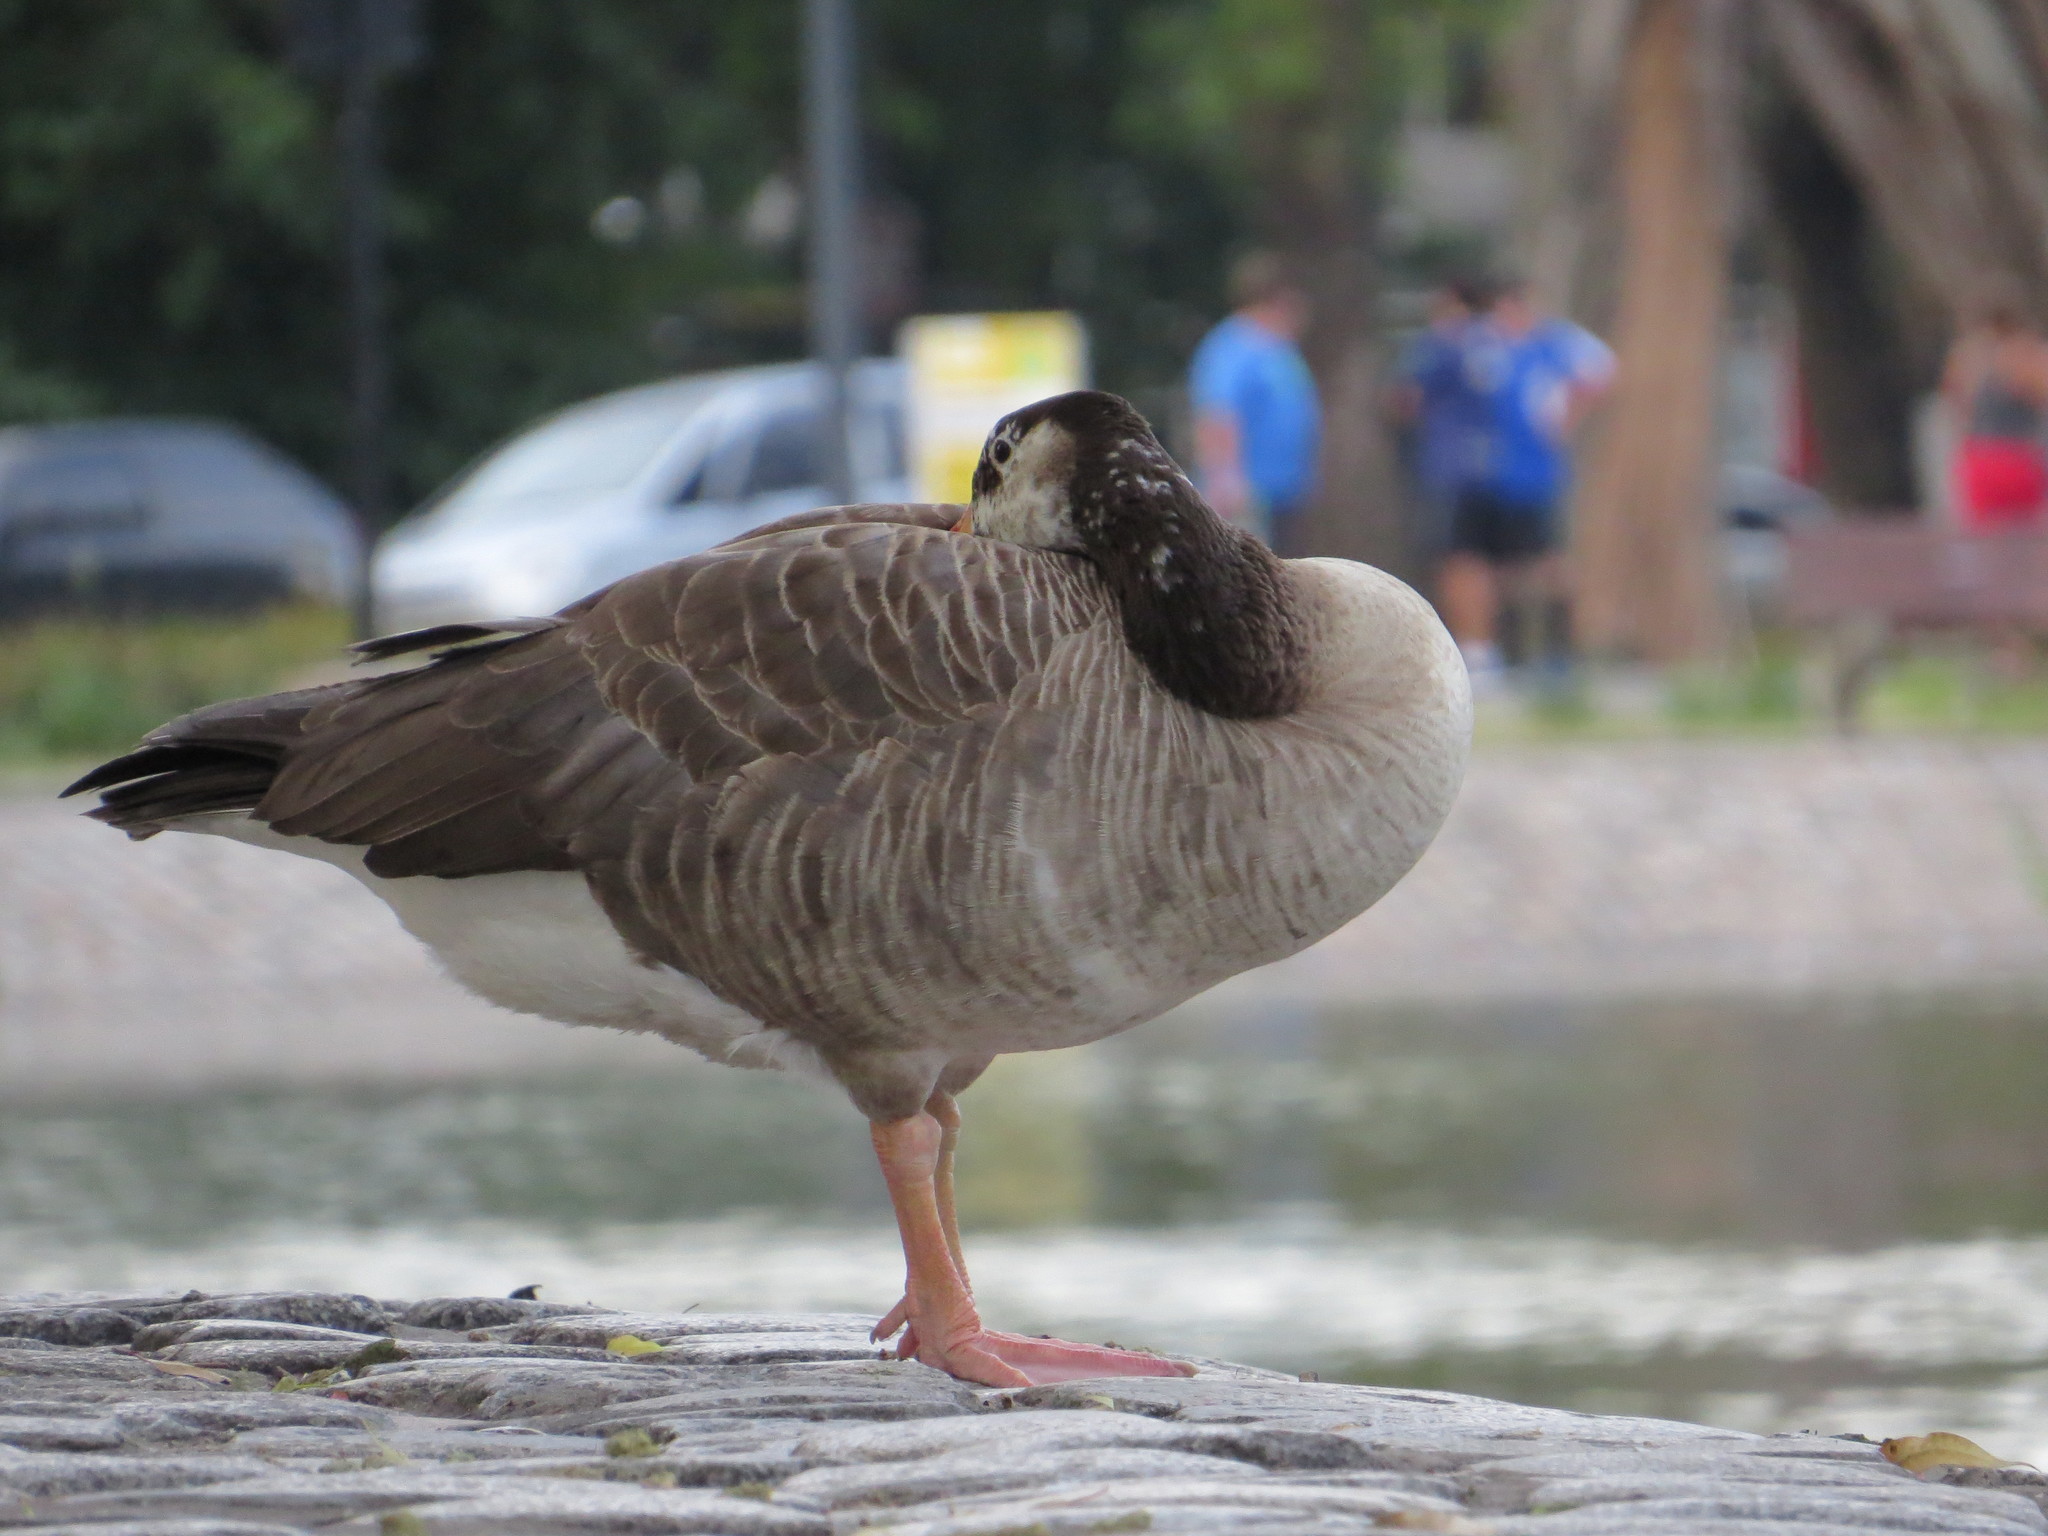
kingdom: Animalia
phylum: Chordata
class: Aves
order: Anseriformes
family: Anatidae
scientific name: Anatidae
